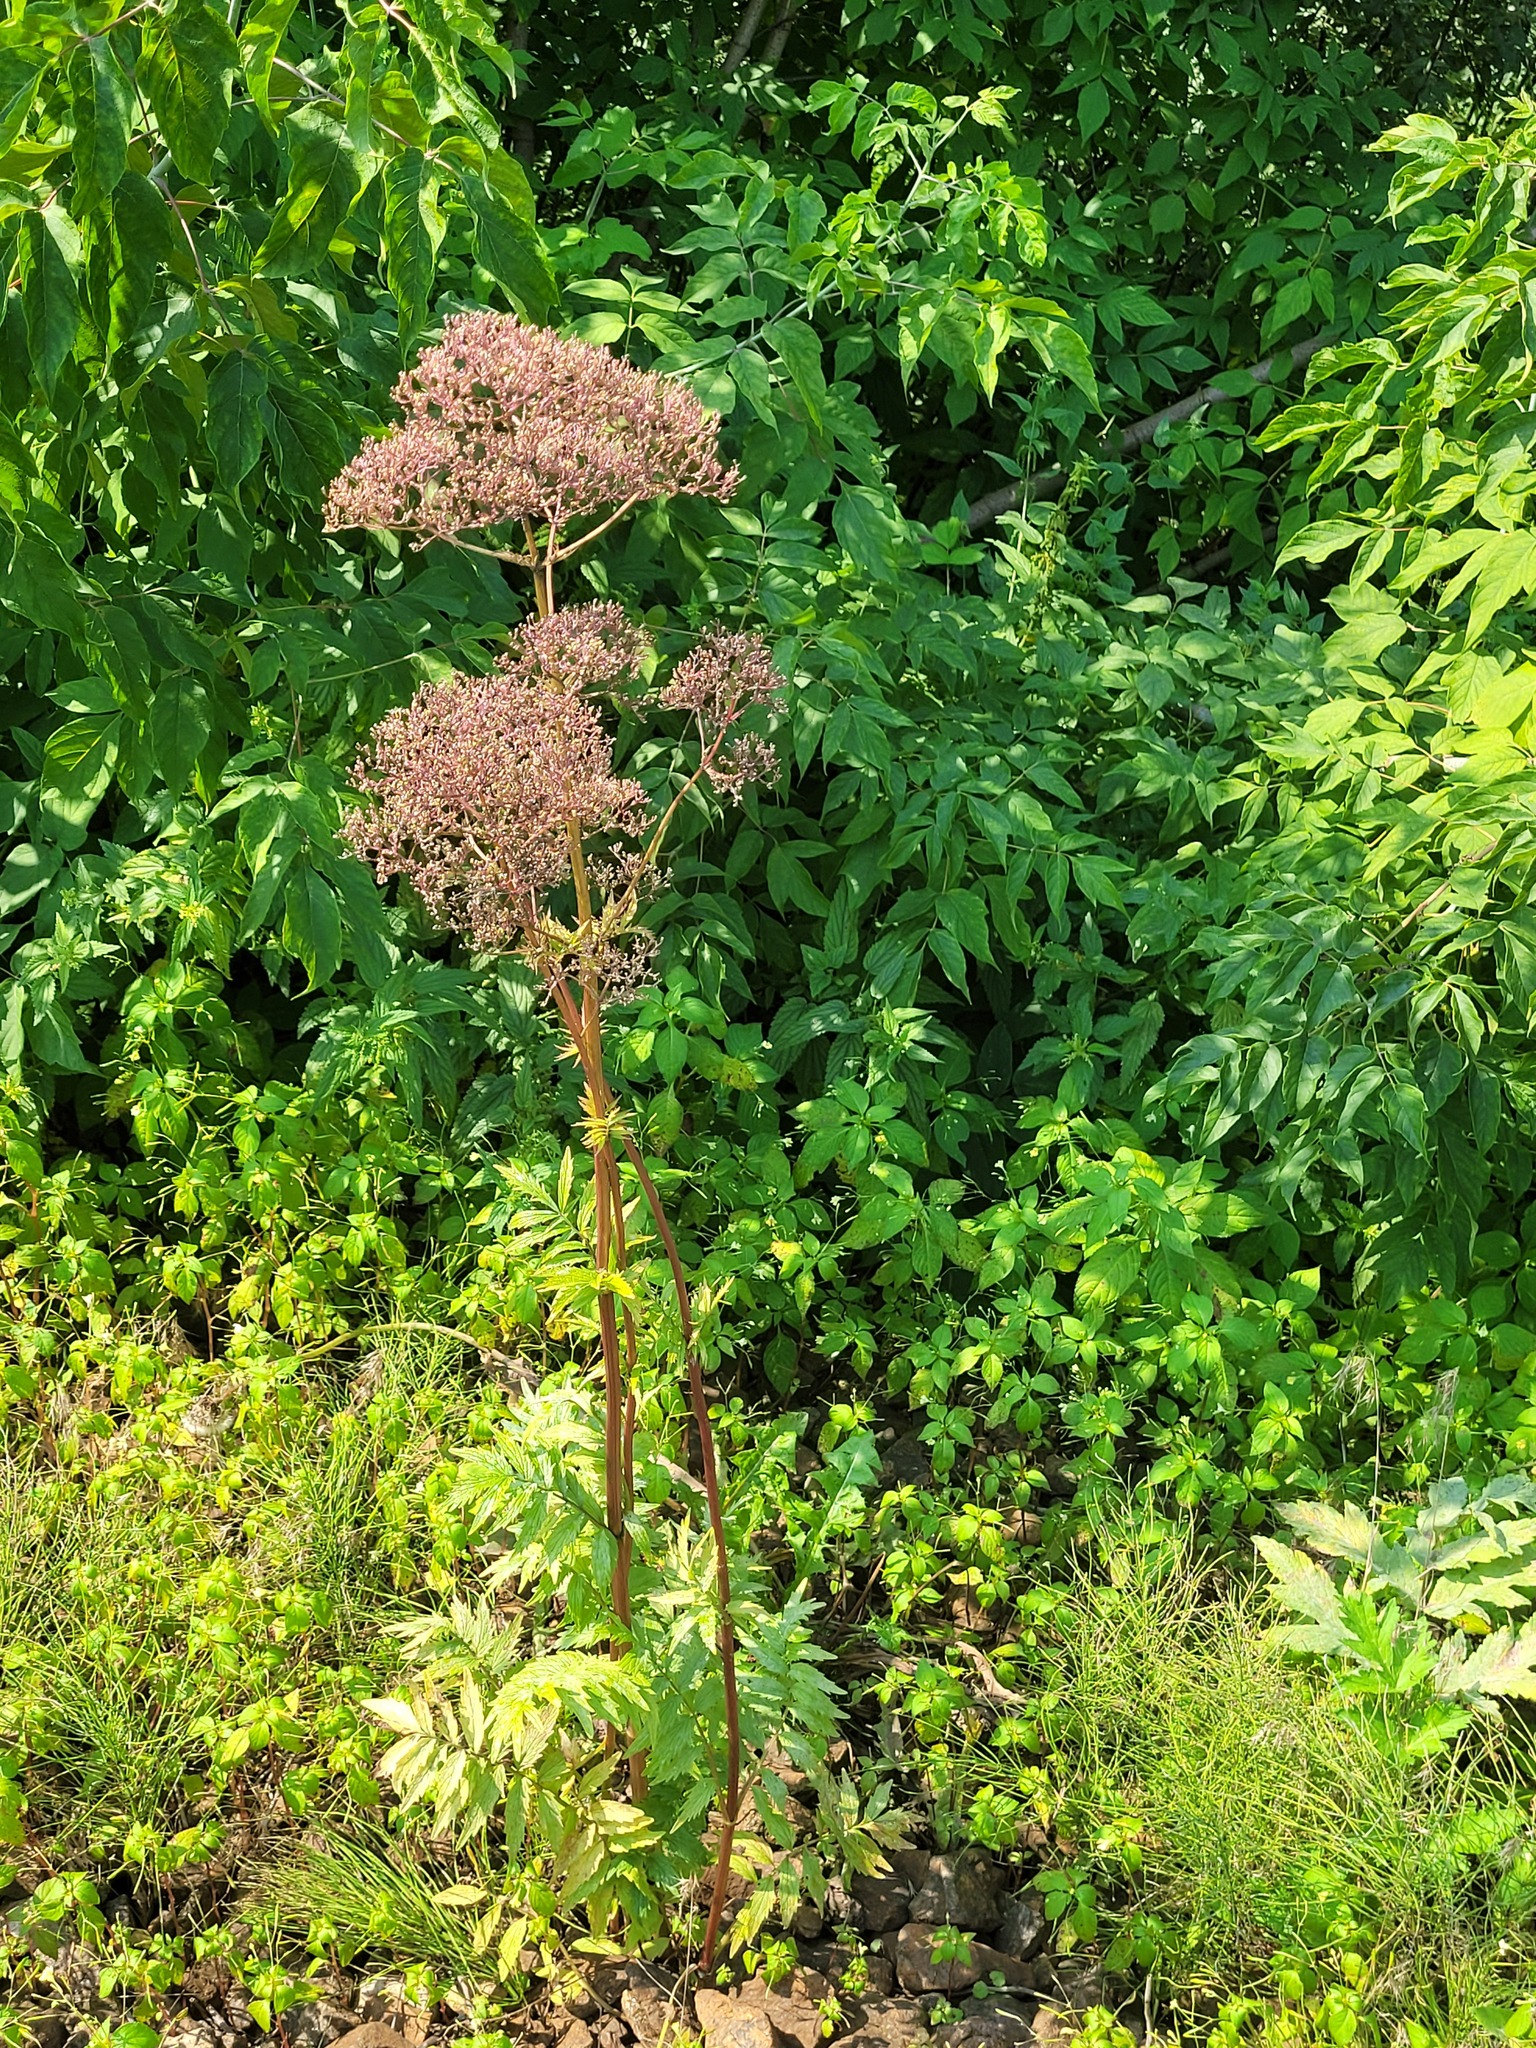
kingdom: Plantae
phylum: Tracheophyta
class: Magnoliopsida
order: Dipsacales
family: Caprifoliaceae
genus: Valeriana
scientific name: Valeriana officinalis
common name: Common valerian
